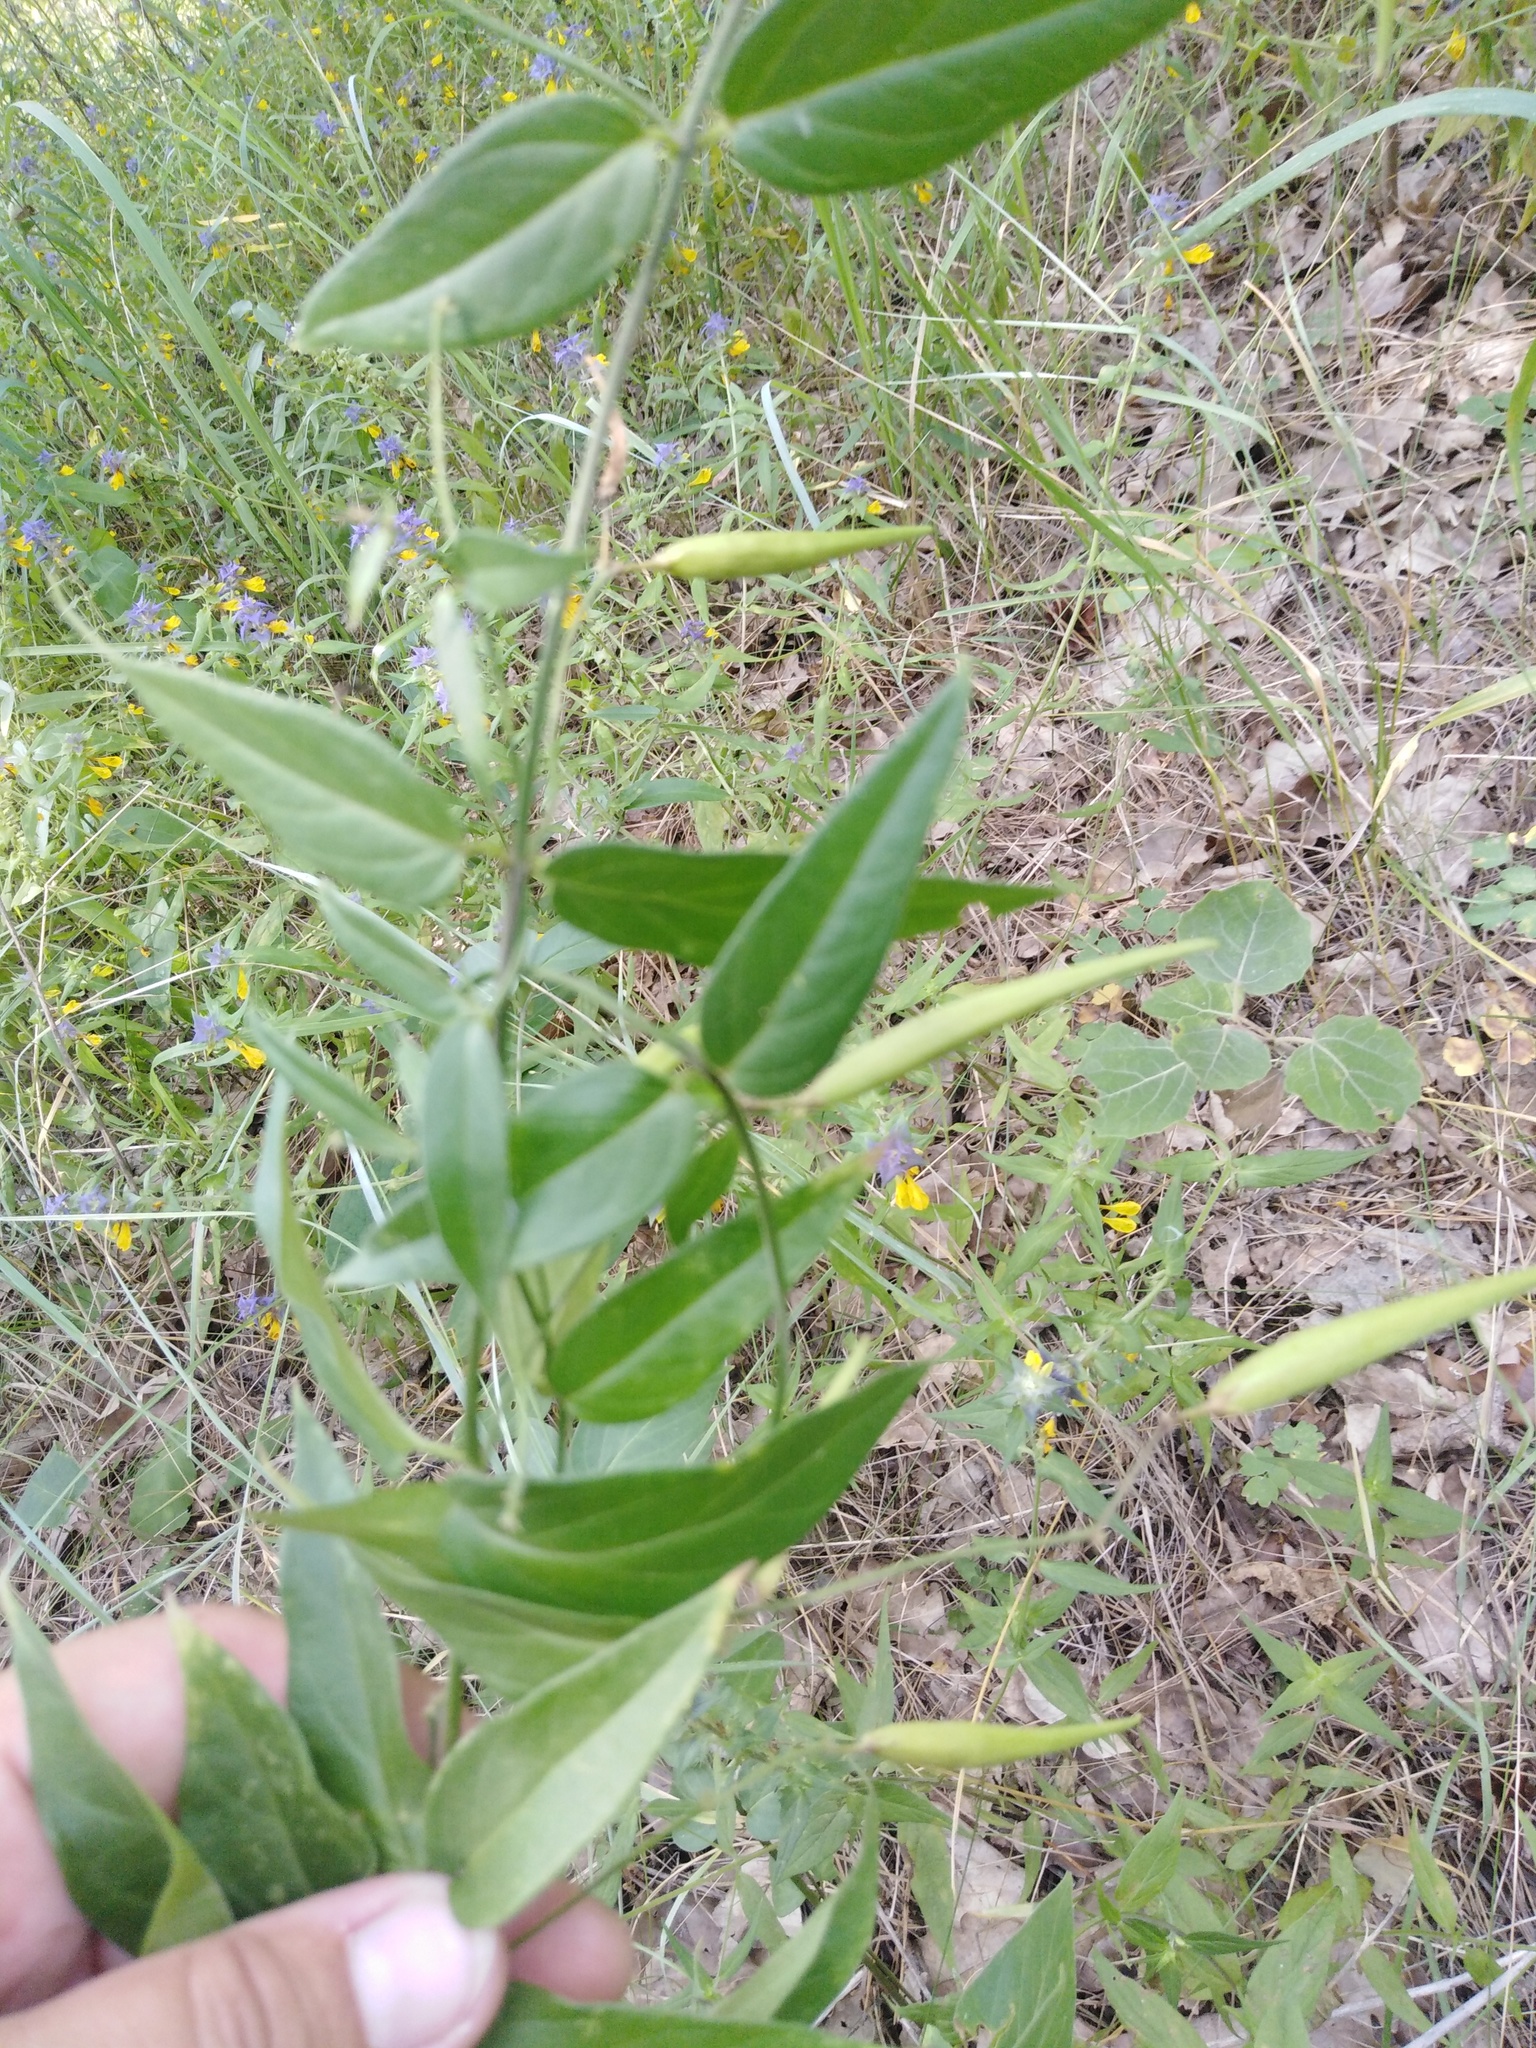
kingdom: Plantae
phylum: Tracheophyta
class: Magnoliopsida
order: Gentianales
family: Apocynaceae
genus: Vincetoxicum
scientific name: Vincetoxicum hirundinaria
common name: White swallowwort
